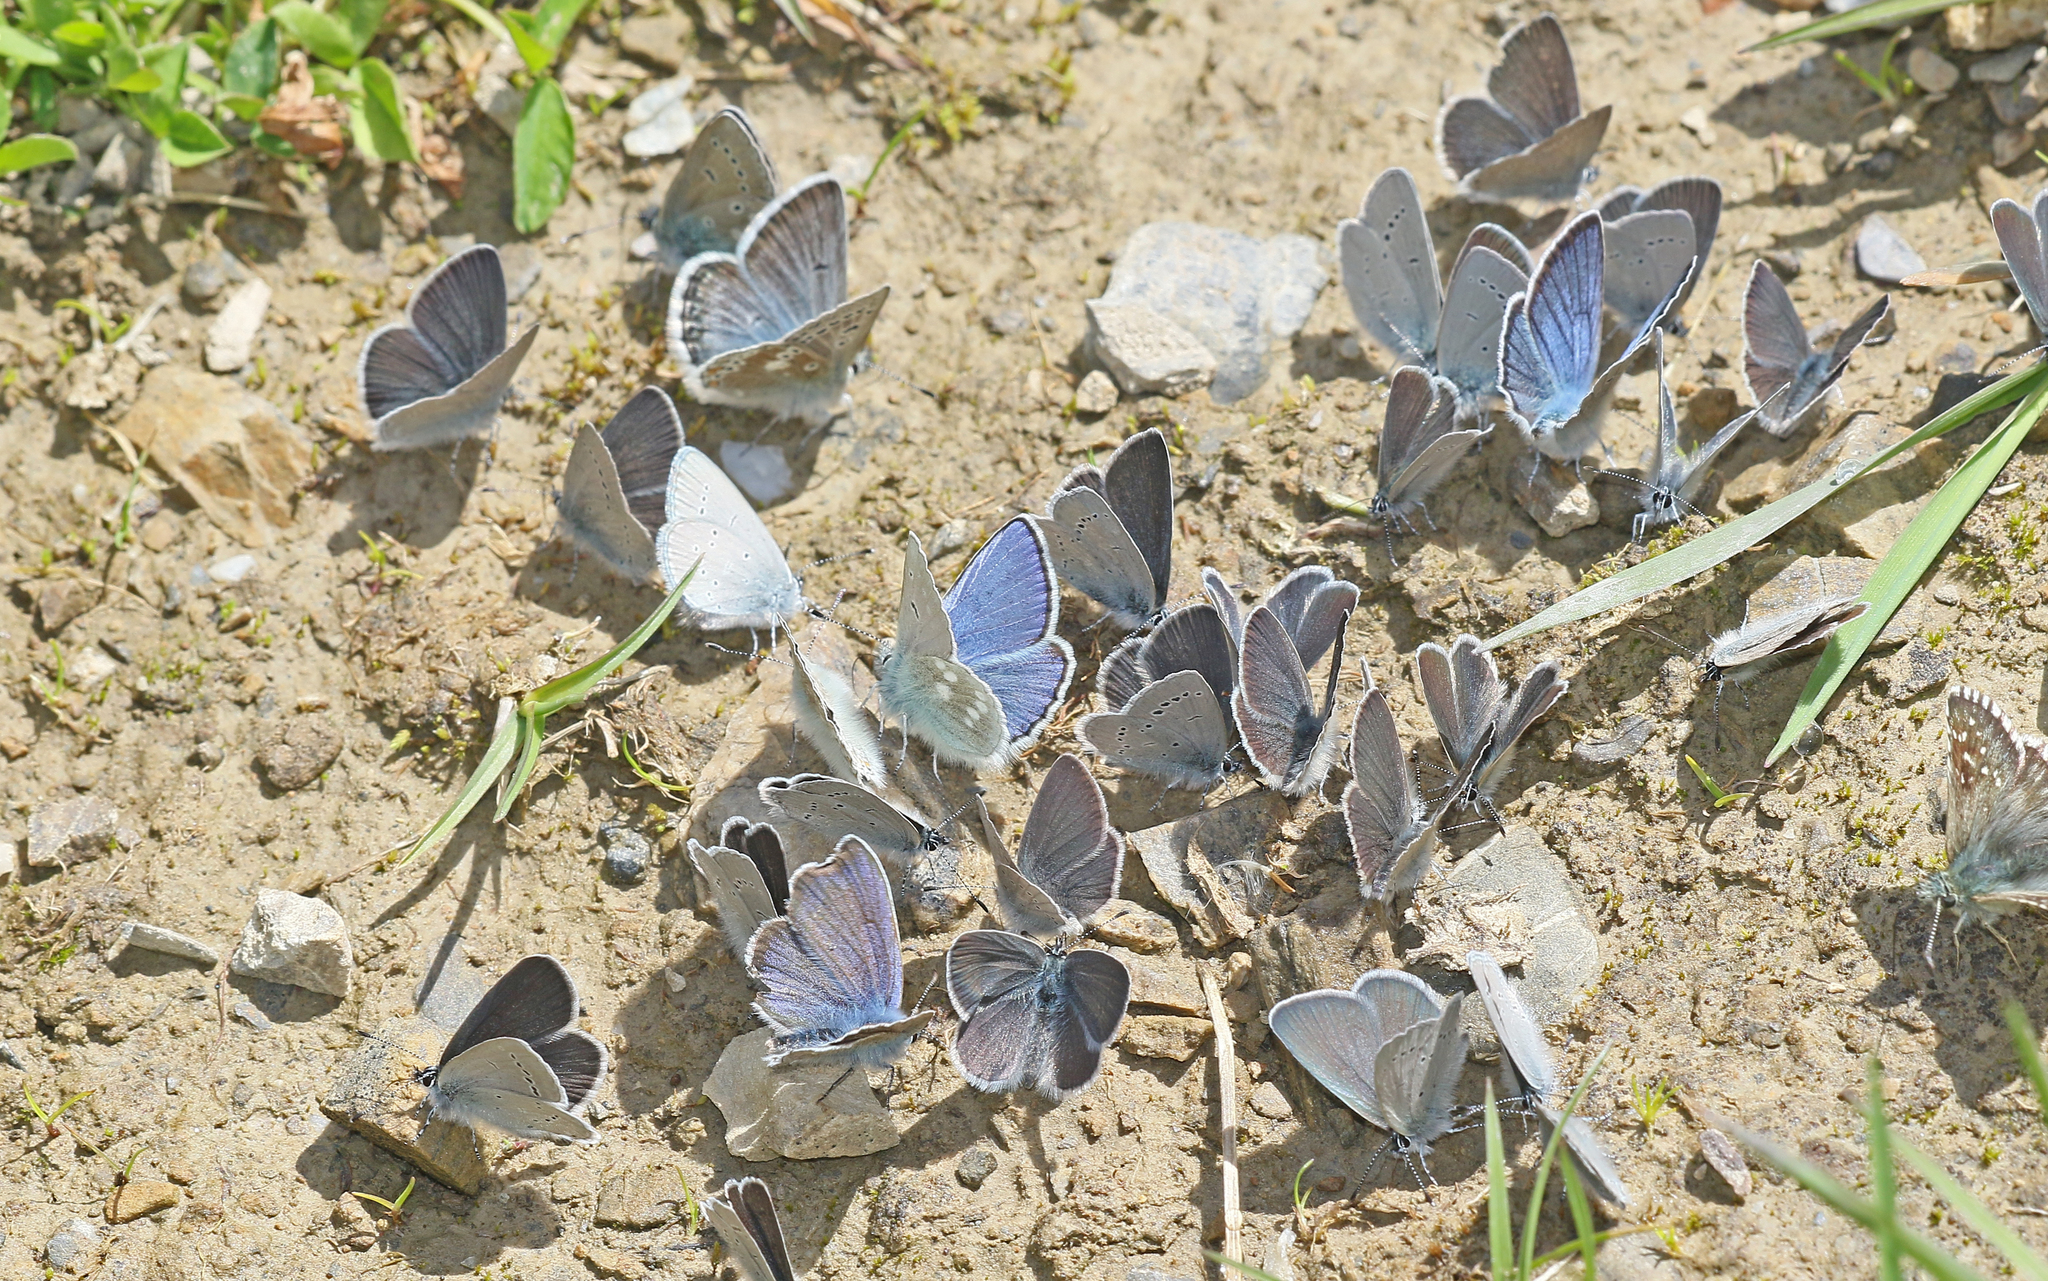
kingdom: Animalia
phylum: Arthropoda
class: Insecta
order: Lepidoptera
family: Lycaenidae
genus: Albulina
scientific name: Albulina orbitulus
